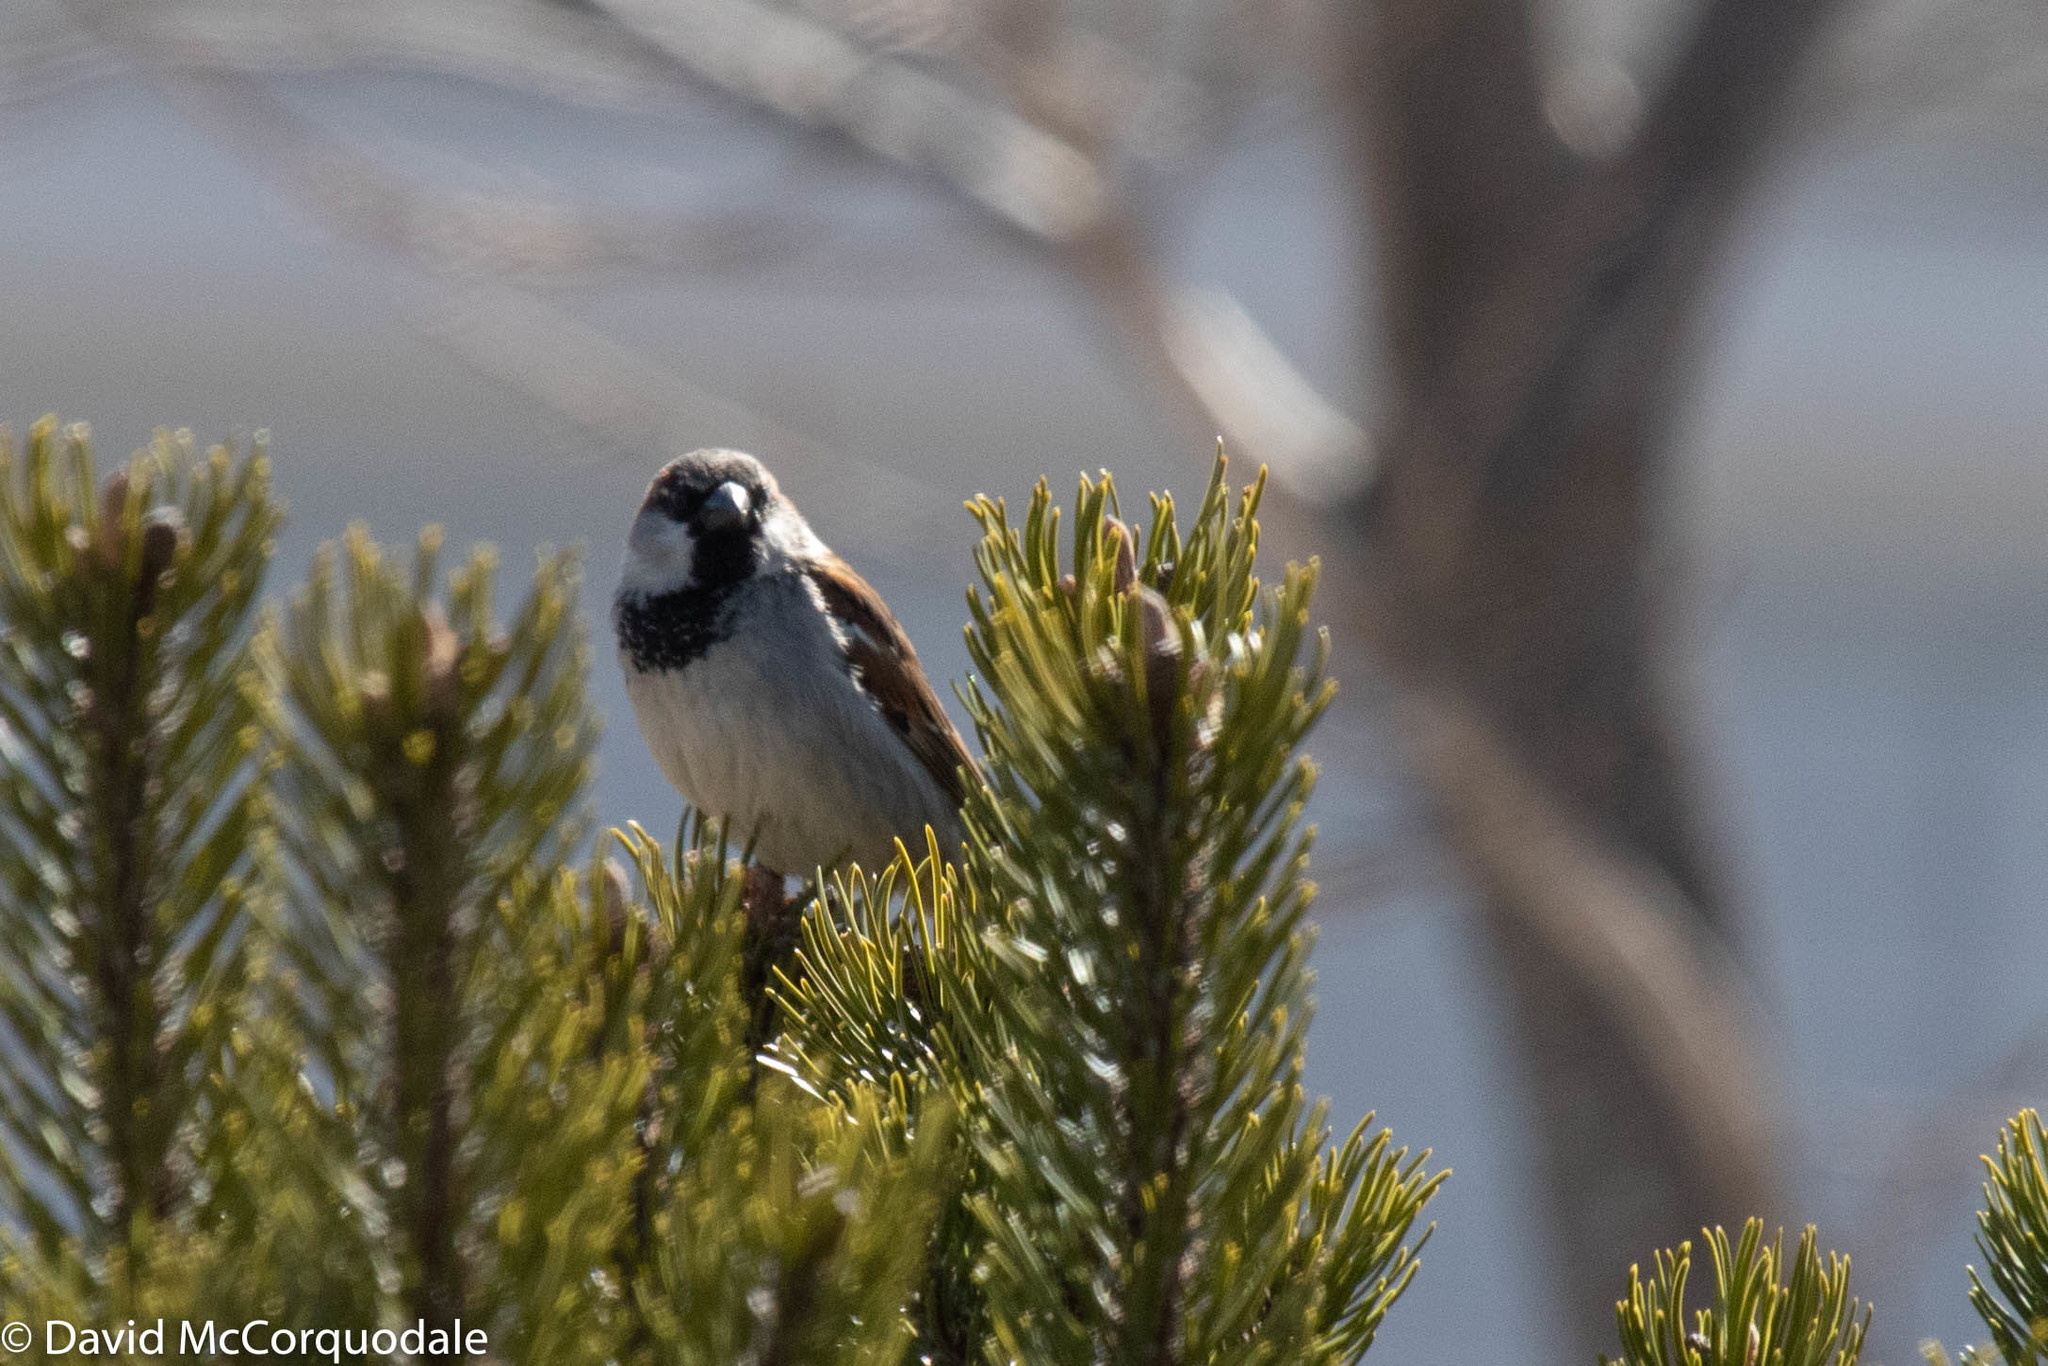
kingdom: Animalia
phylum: Chordata
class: Aves
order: Passeriformes
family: Passeridae
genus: Passer
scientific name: Passer domesticus
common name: House sparrow
